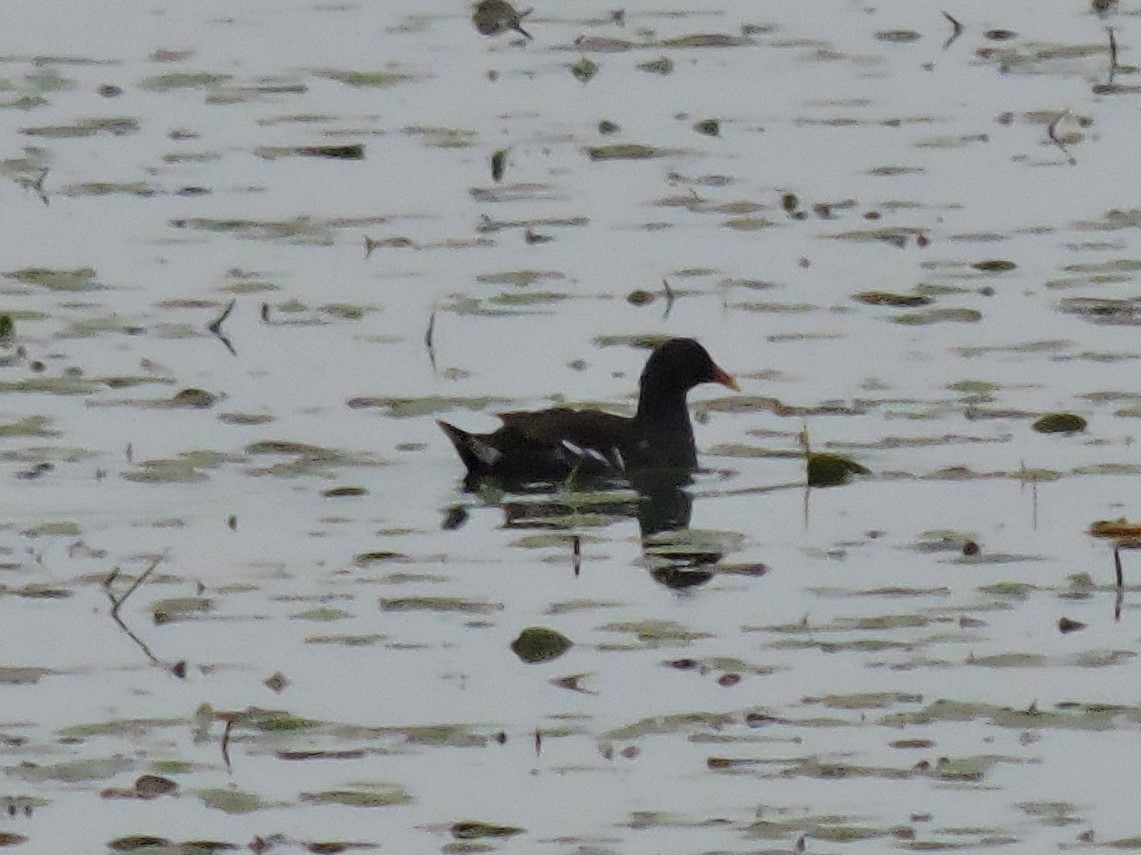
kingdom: Animalia
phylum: Chordata
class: Aves
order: Gruiformes
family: Rallidae
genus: Gallinula
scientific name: Gallinula chloropus
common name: Common moorhen
